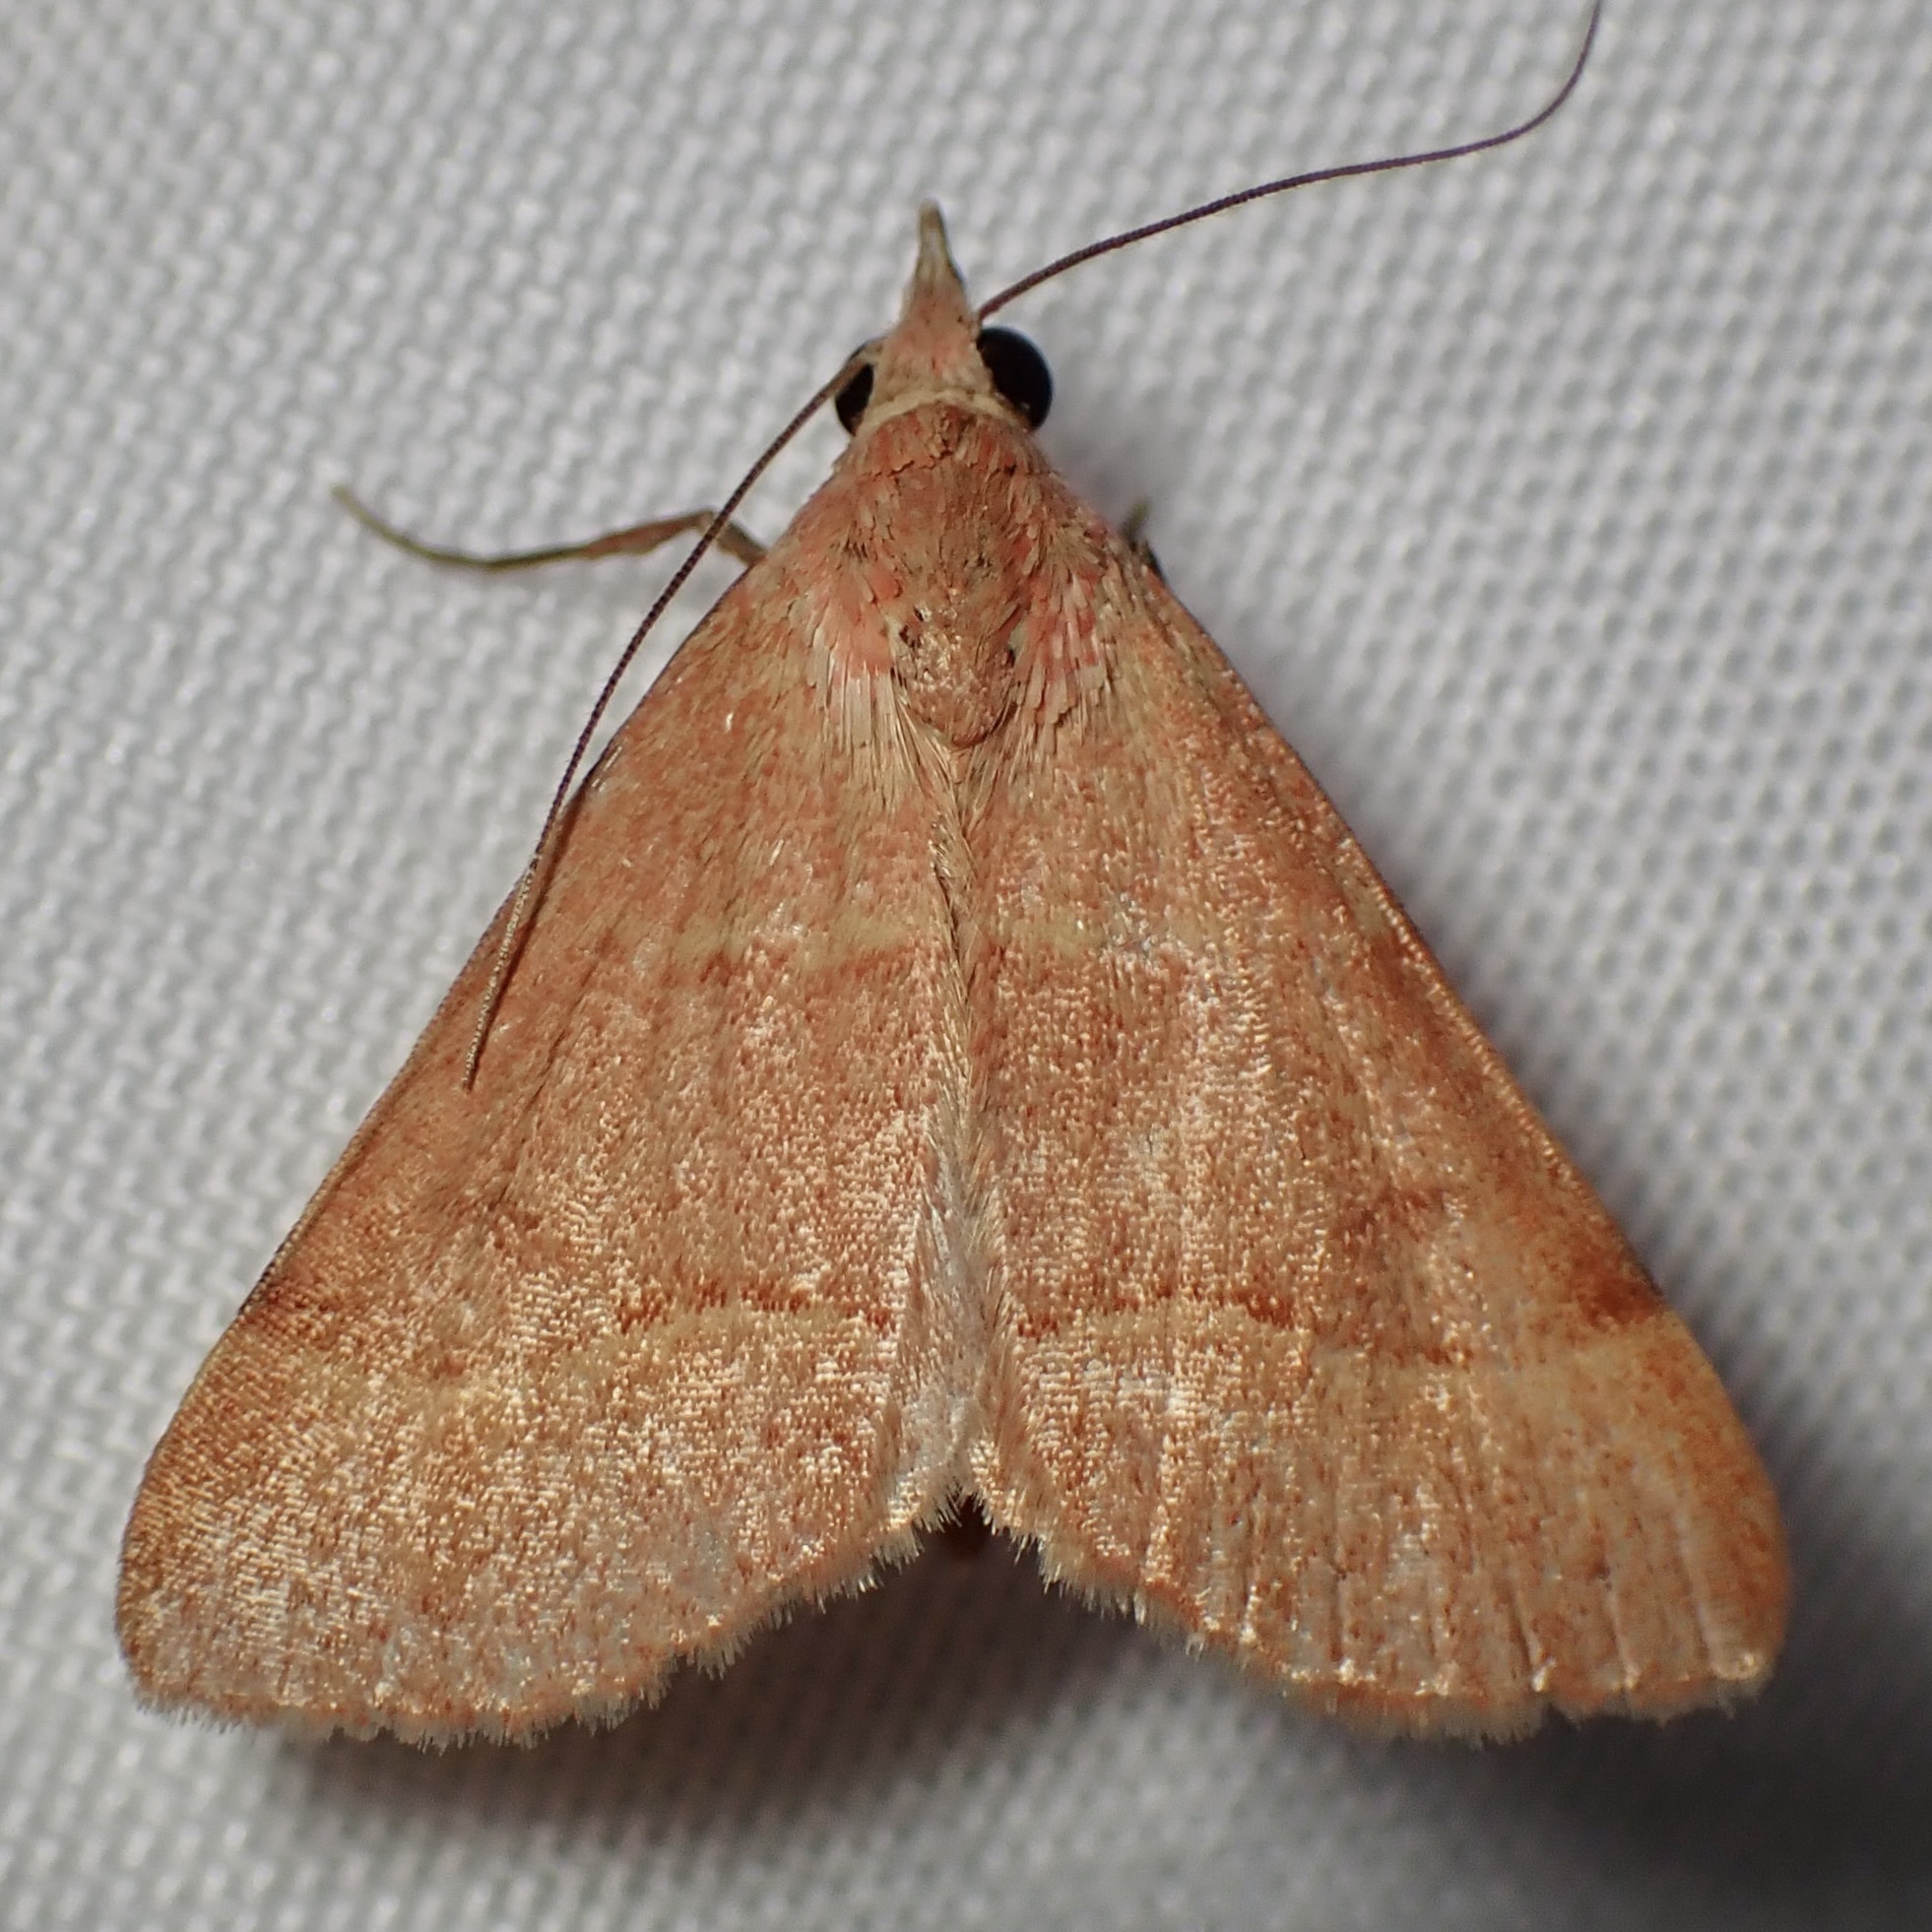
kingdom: Animalia
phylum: Arthropoda
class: Insecta
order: Lepidoptera
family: Erebidae
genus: Hemeroplanis
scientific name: Hemeroplanis rectalis
